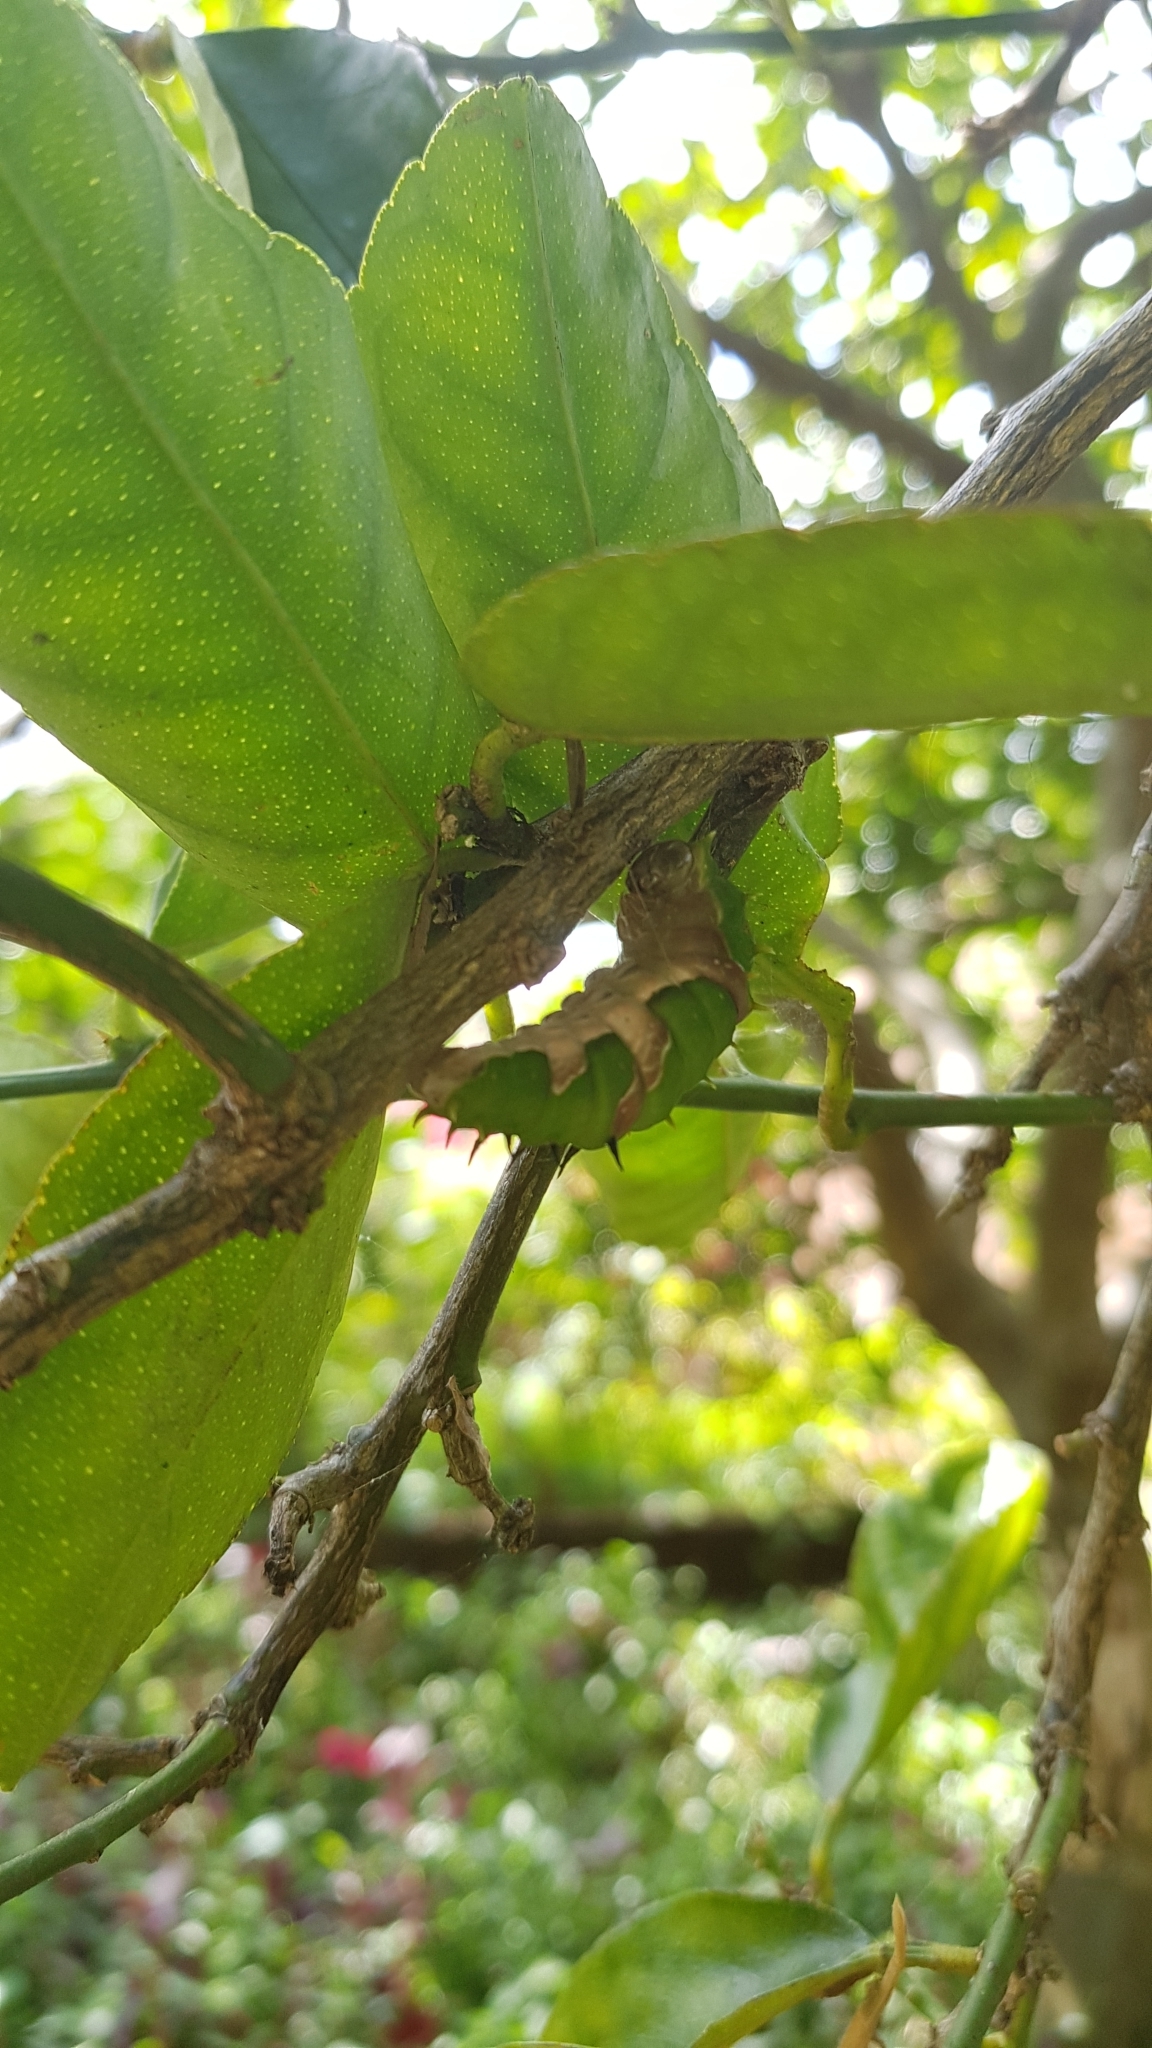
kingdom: Animalia
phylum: Arthropoda
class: Insecta
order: Lepidoptera
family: Papilionidae
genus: Papilio
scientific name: Papilio aegeus
